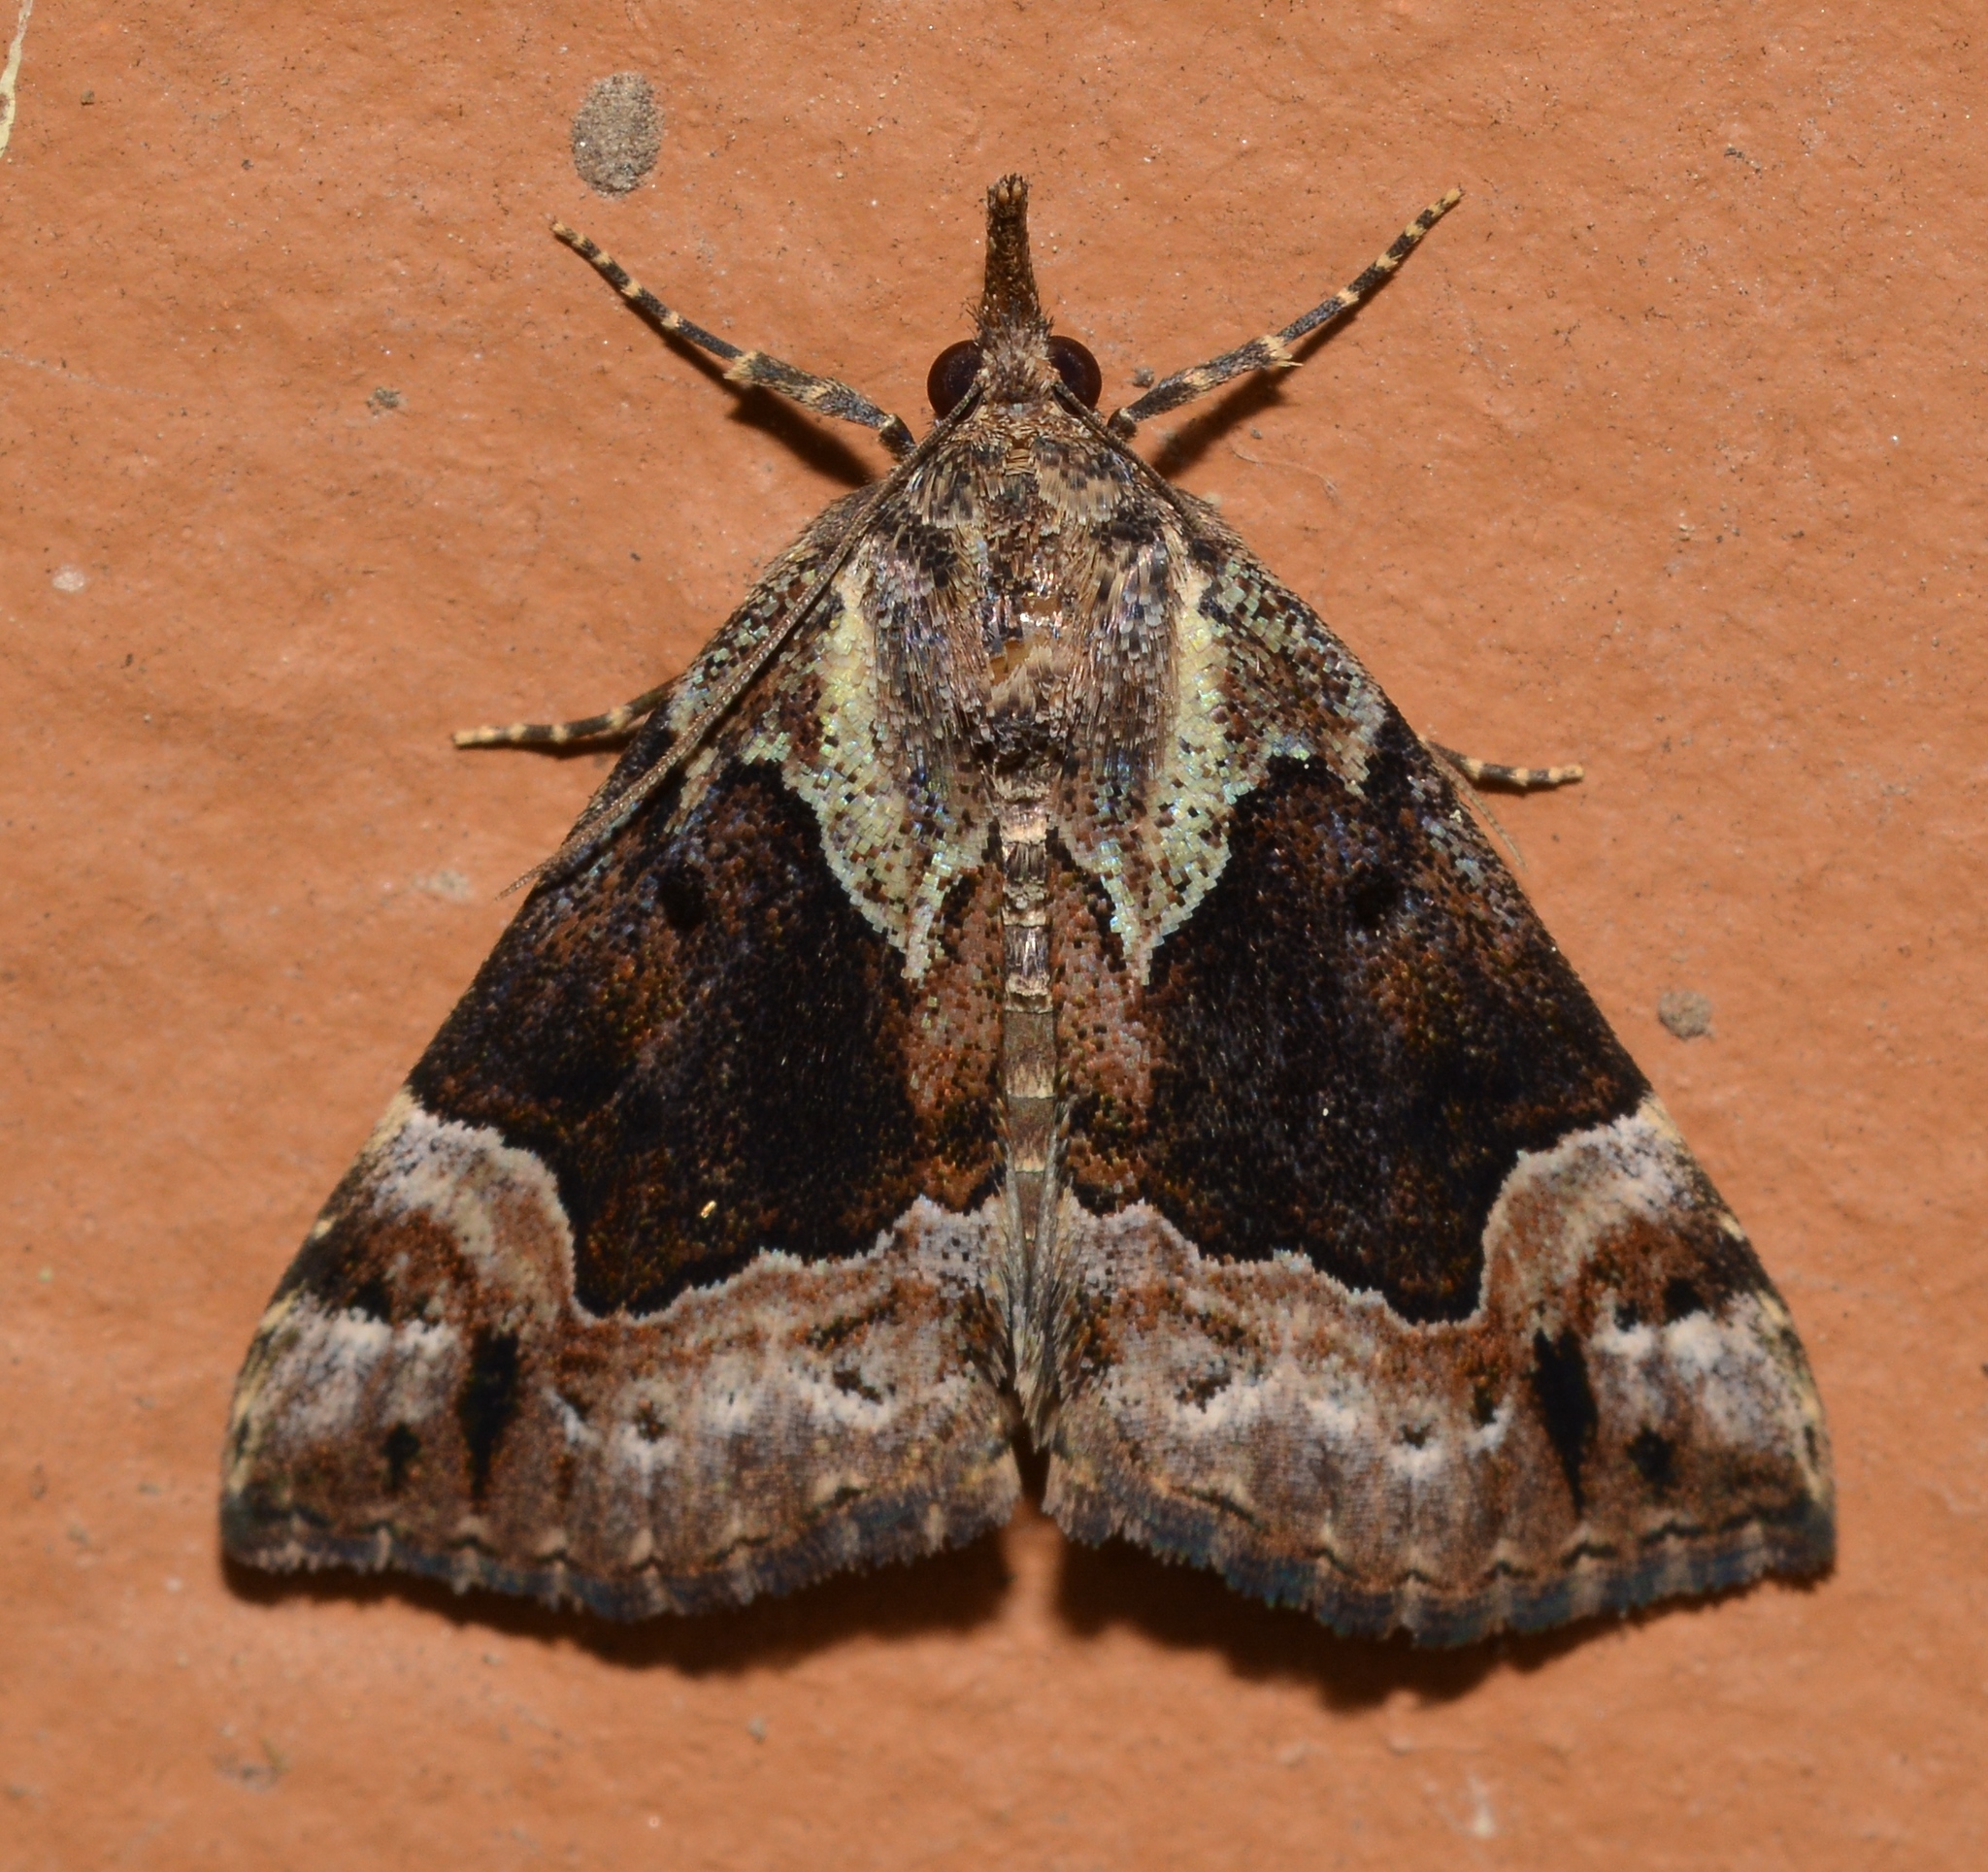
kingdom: Animalia
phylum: Arthropoda
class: Insecta
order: Lepidoptera
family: Erebidae
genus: Hypena
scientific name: Hypena palparia
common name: Mottled bomolocha moth
